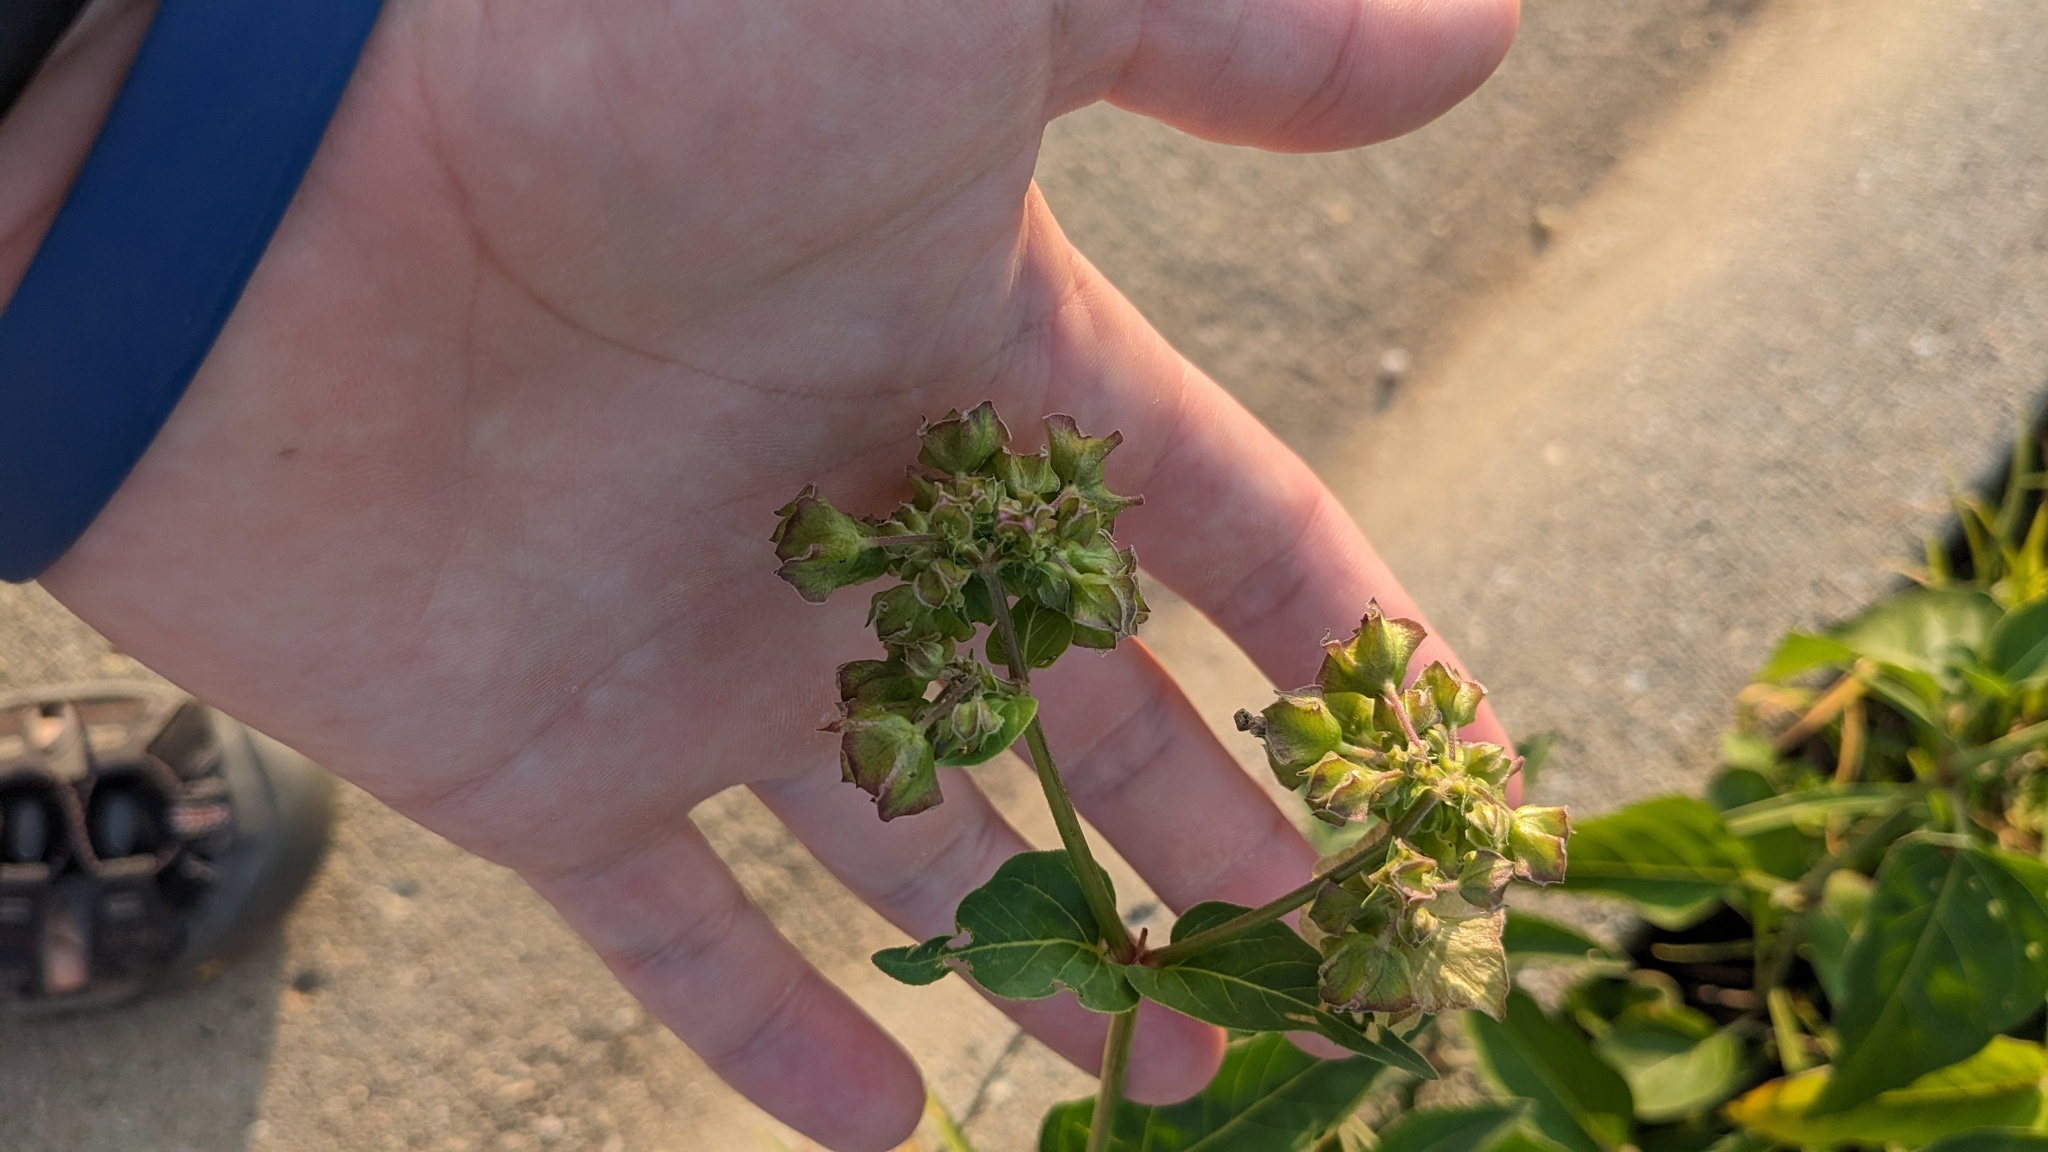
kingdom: Plantae
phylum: Tracheophyta
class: Magnoliopsida
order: Caryophyllales
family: Nyctaginaceae
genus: Mirabilis
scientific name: Mirabilis nyctaginea
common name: Umbrella wort
